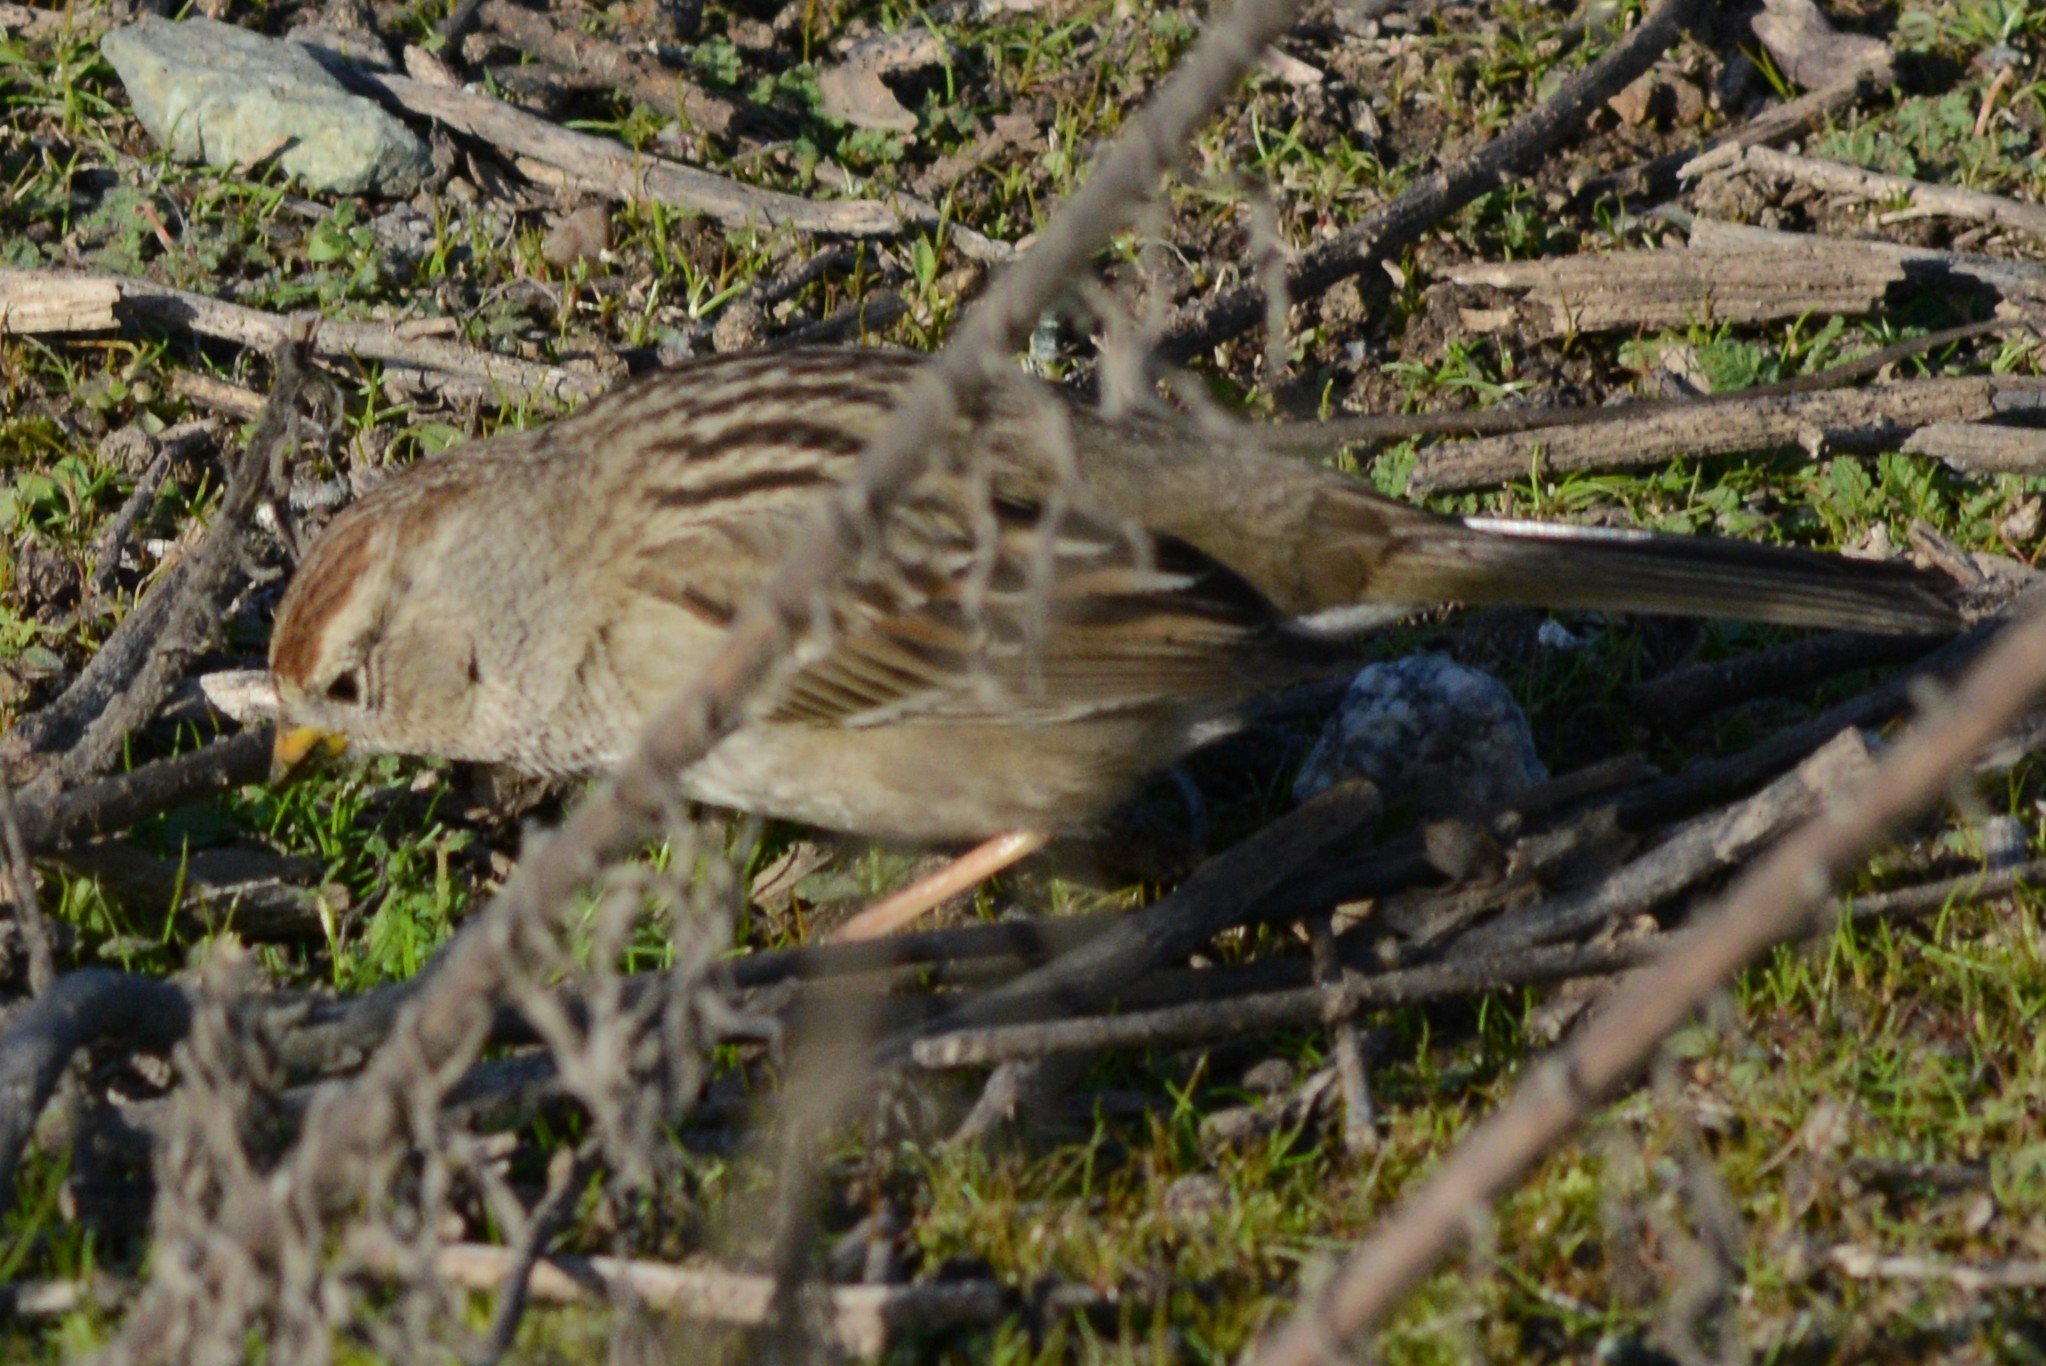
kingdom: Animalia
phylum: Chordata
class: Aves
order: Passeriformes
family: Passerellidae
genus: Zonotrichia
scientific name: Zonotrichia leucophrys
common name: White-crowned sparrow
